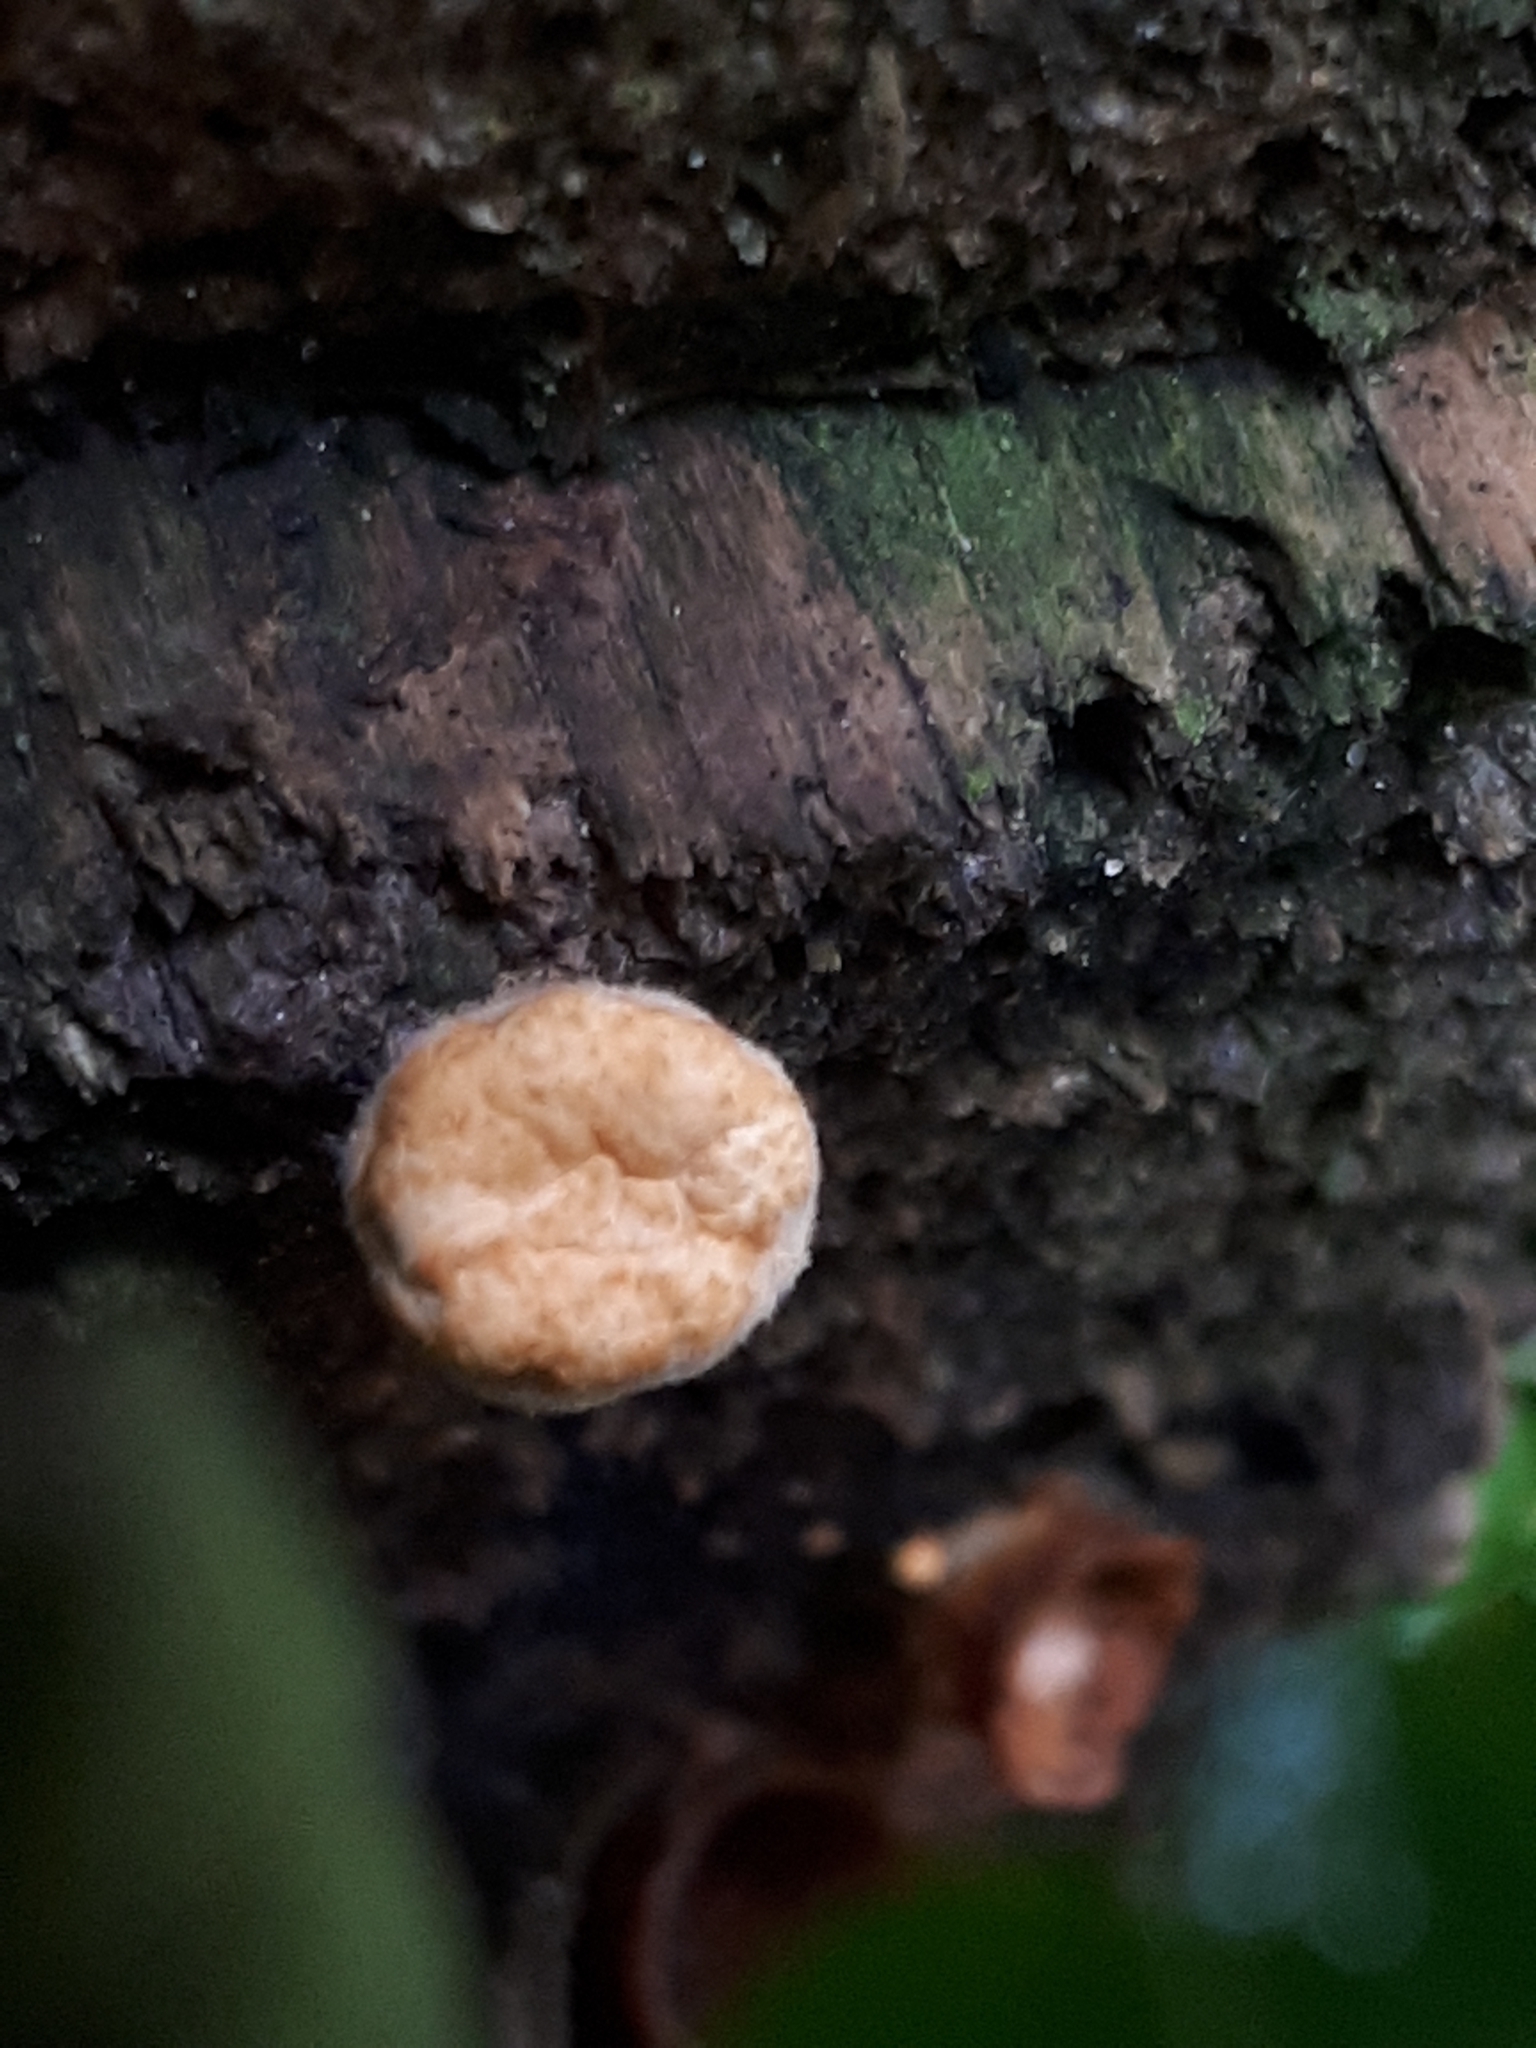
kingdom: Fungi
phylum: Basidiomycota
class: Agaricomycetes
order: Agaricales
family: Nidulariaceae
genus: Crucibulum
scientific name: Crucibulum laeve
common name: Common bird's nest
